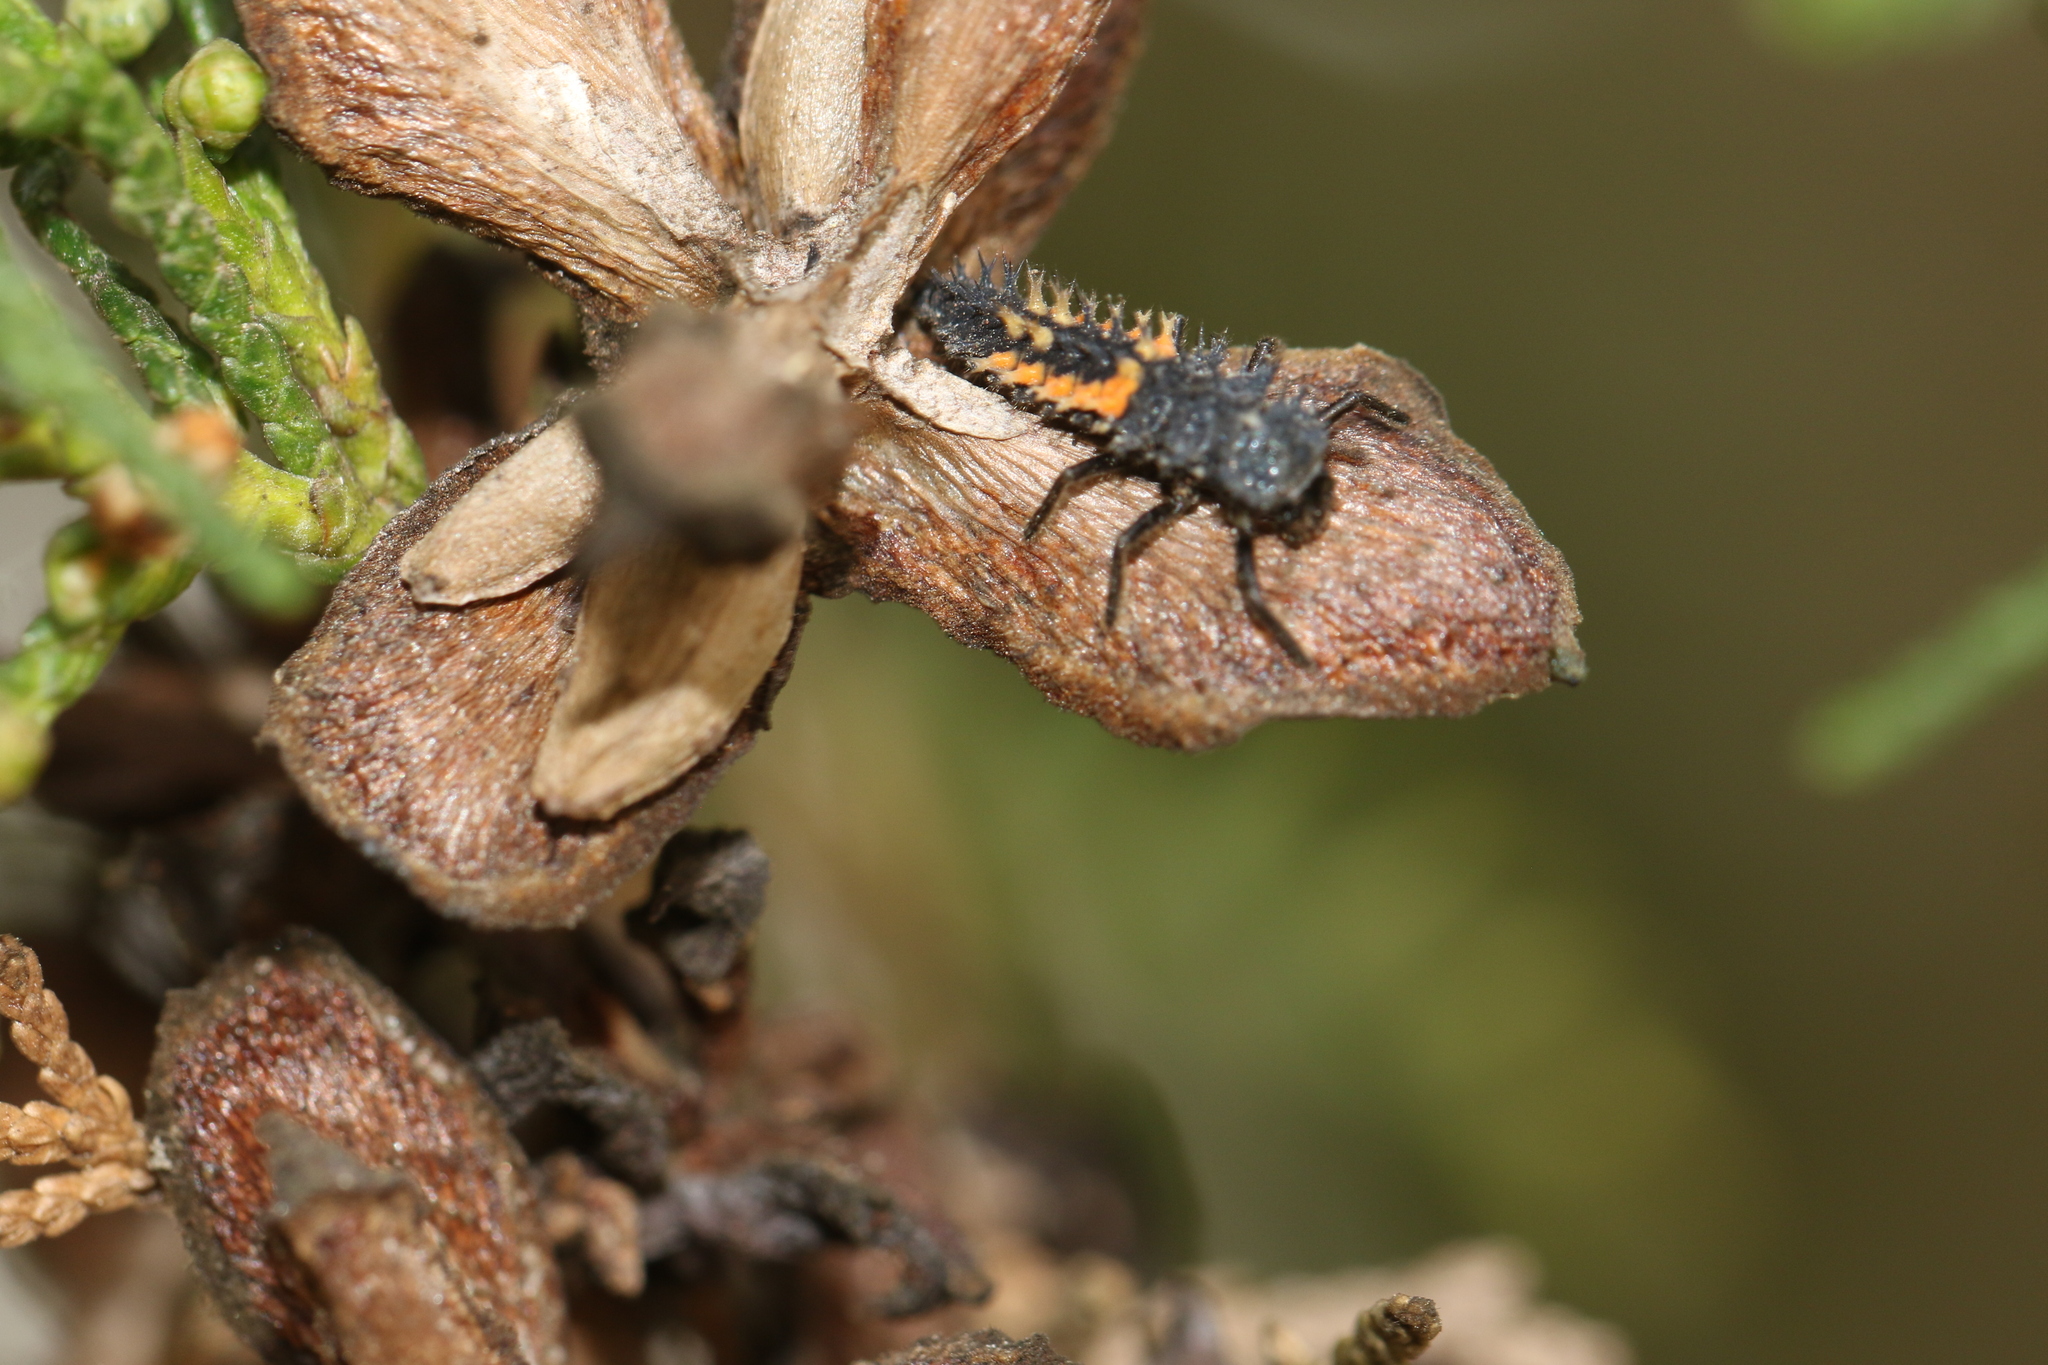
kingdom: Animalia
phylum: Arthropoda
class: Insecta
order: Coleoptera
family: Coccinellidae
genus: Harmonia
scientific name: Harmonia axyridis
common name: Harlequin ladybird
